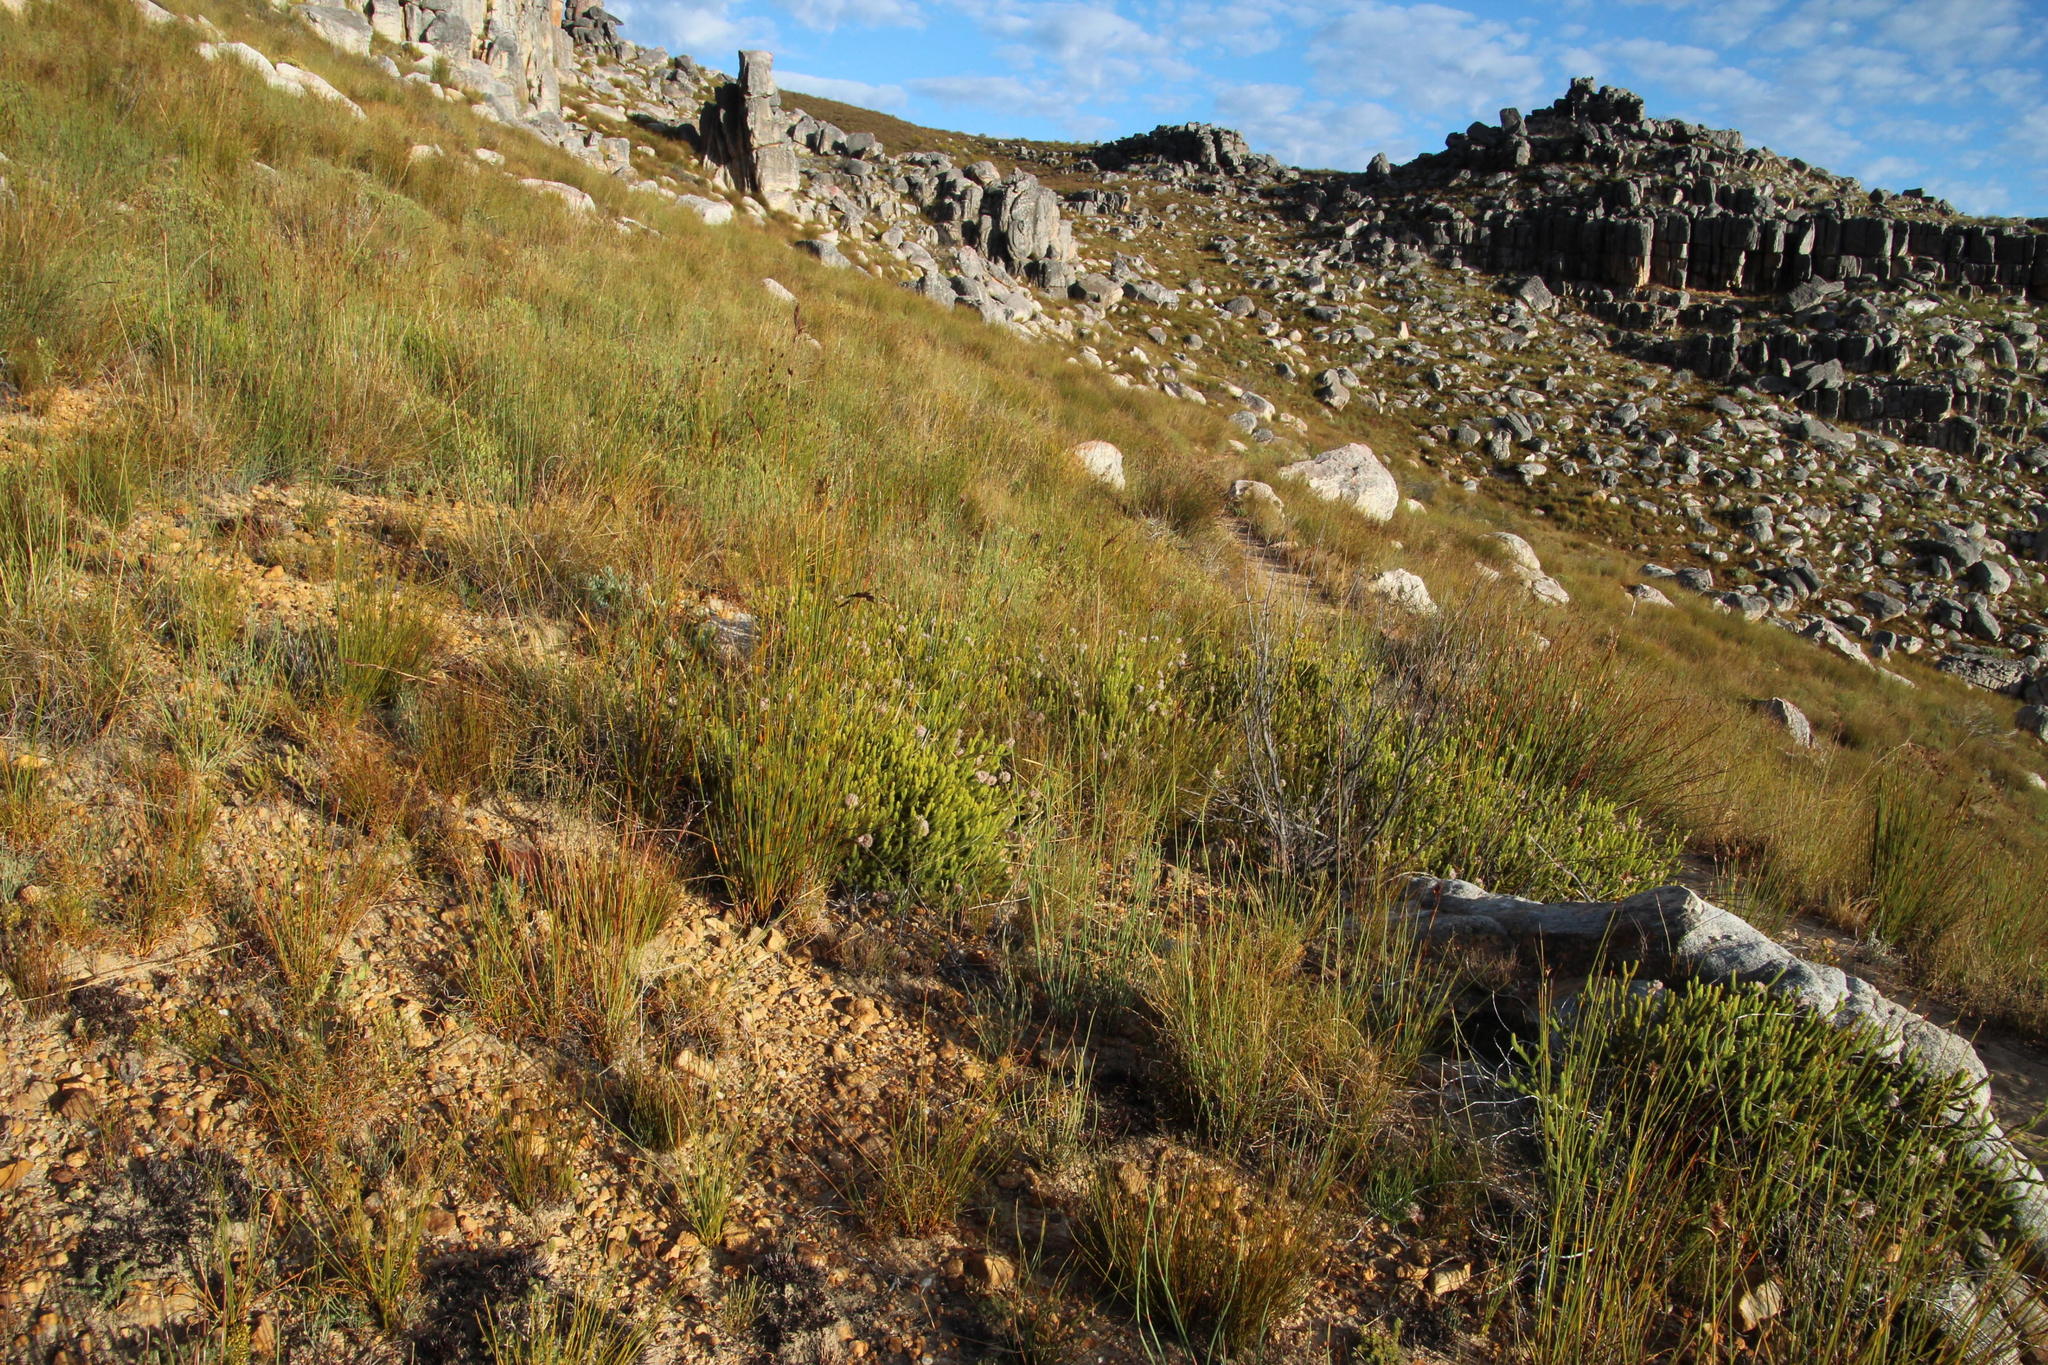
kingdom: Plantae
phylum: Tracheophyta
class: Magnoliopsida
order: Proteales
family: Proteaceae
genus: Sorocephalus
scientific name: Sorocephalus lanatus
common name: Common clusterhead
